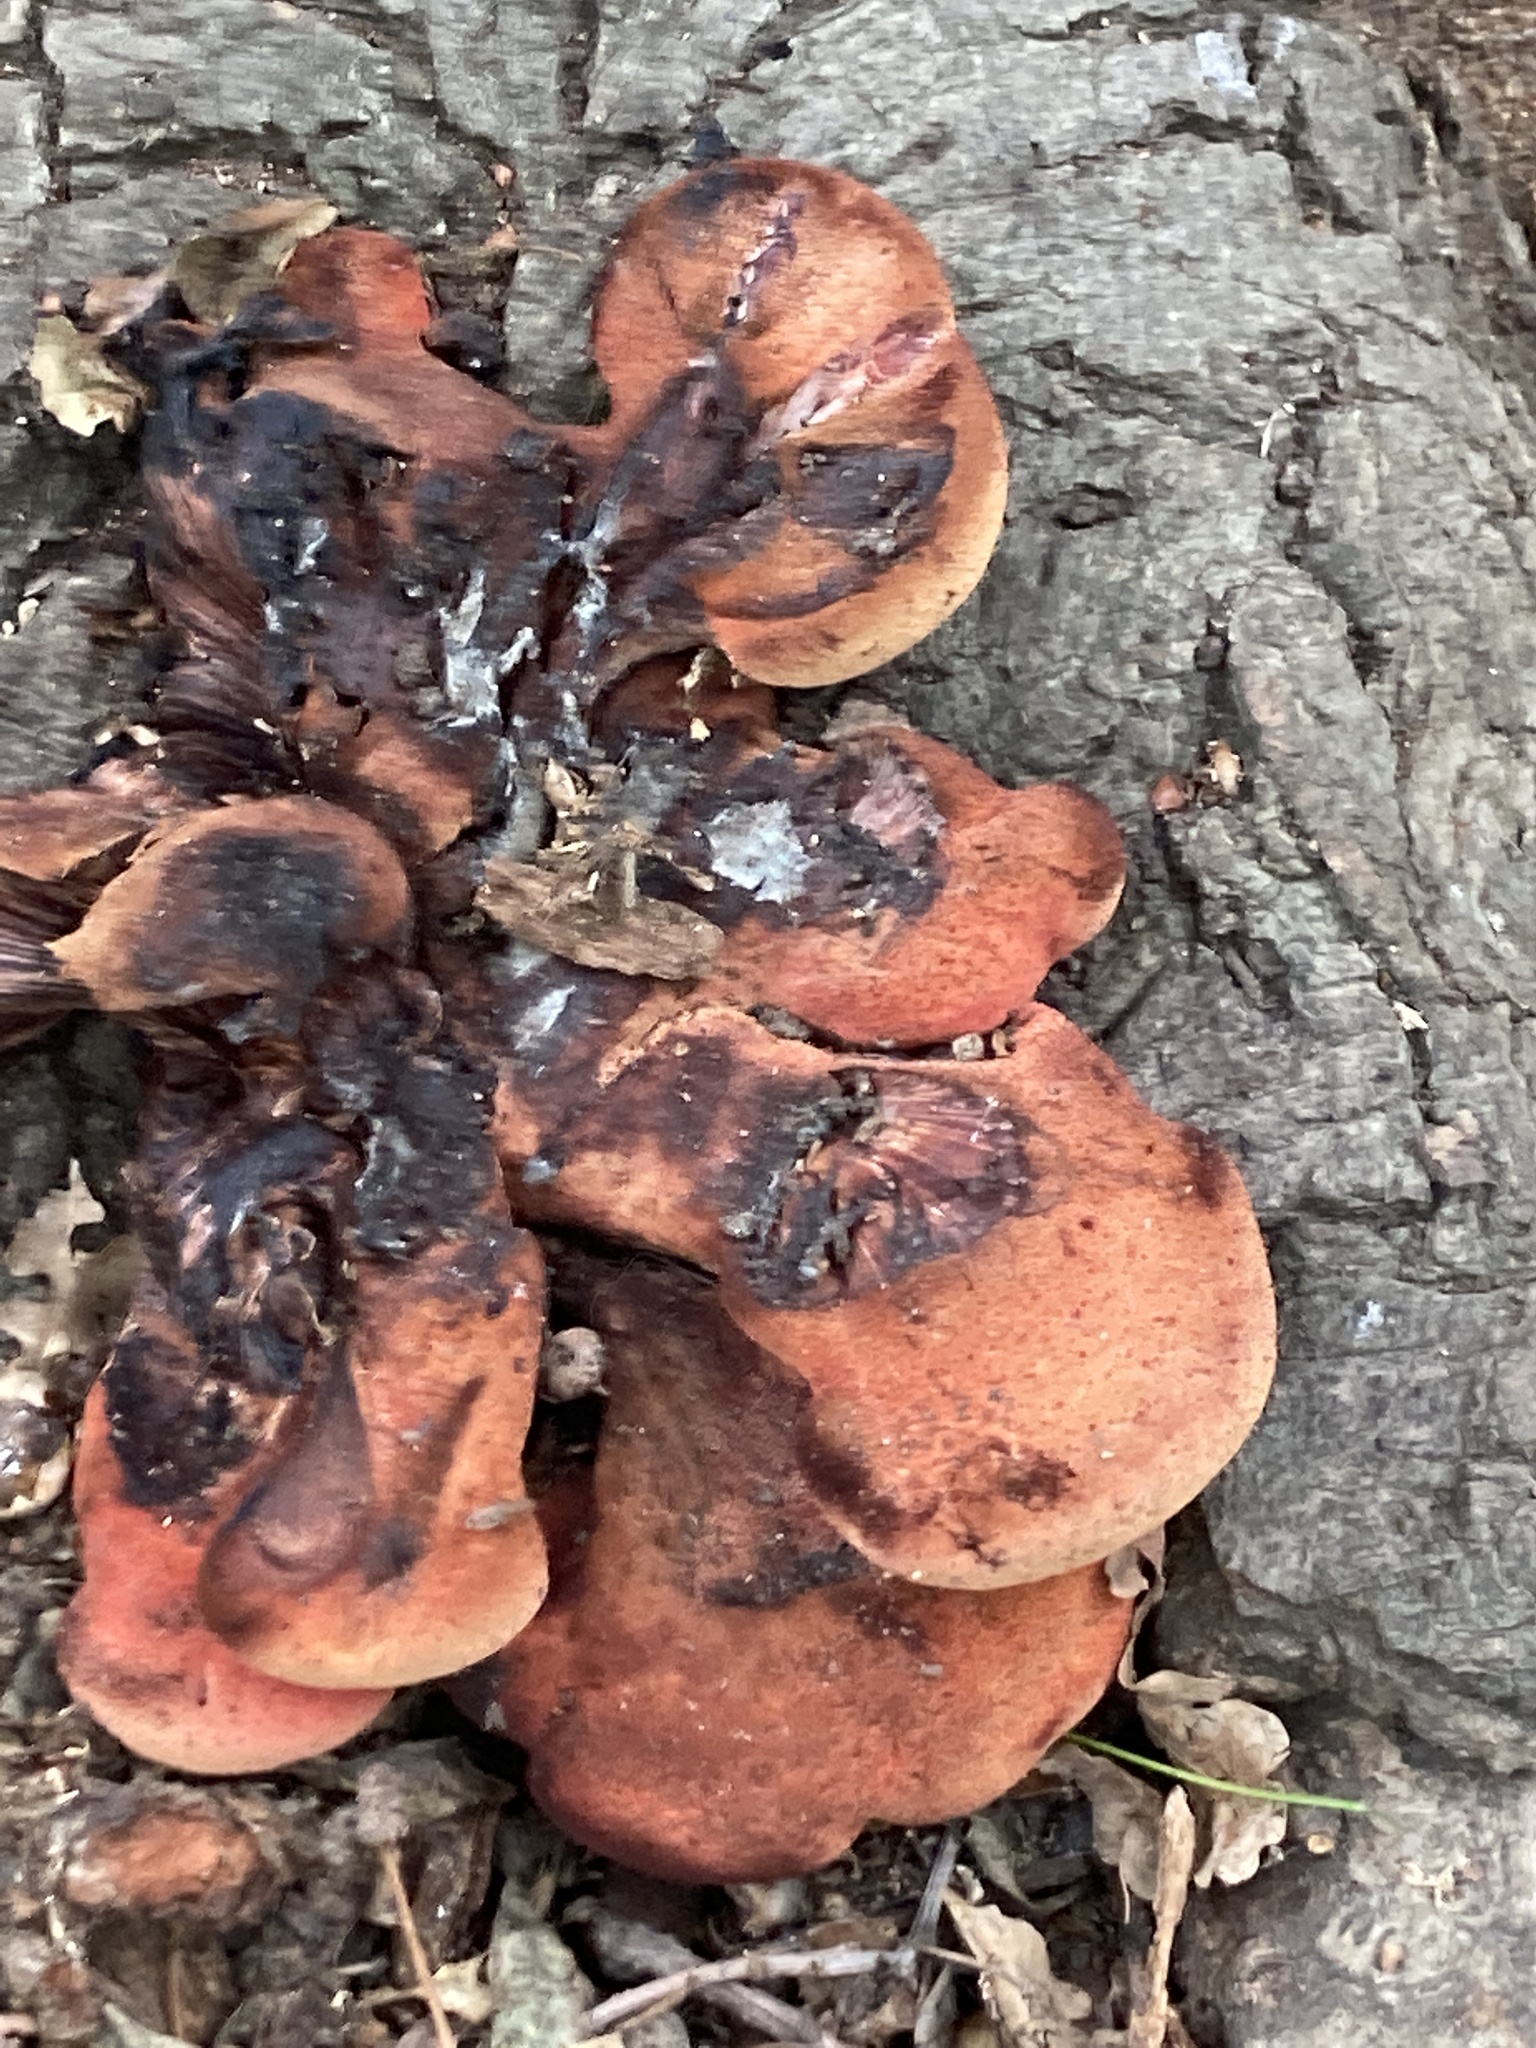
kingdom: Fungi
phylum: Basidiomycota
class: Agaricomycetes
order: Agaricales
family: Fistulinaceae
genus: Fistulina
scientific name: Fistulina hepatica
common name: Beef-steak fungus
